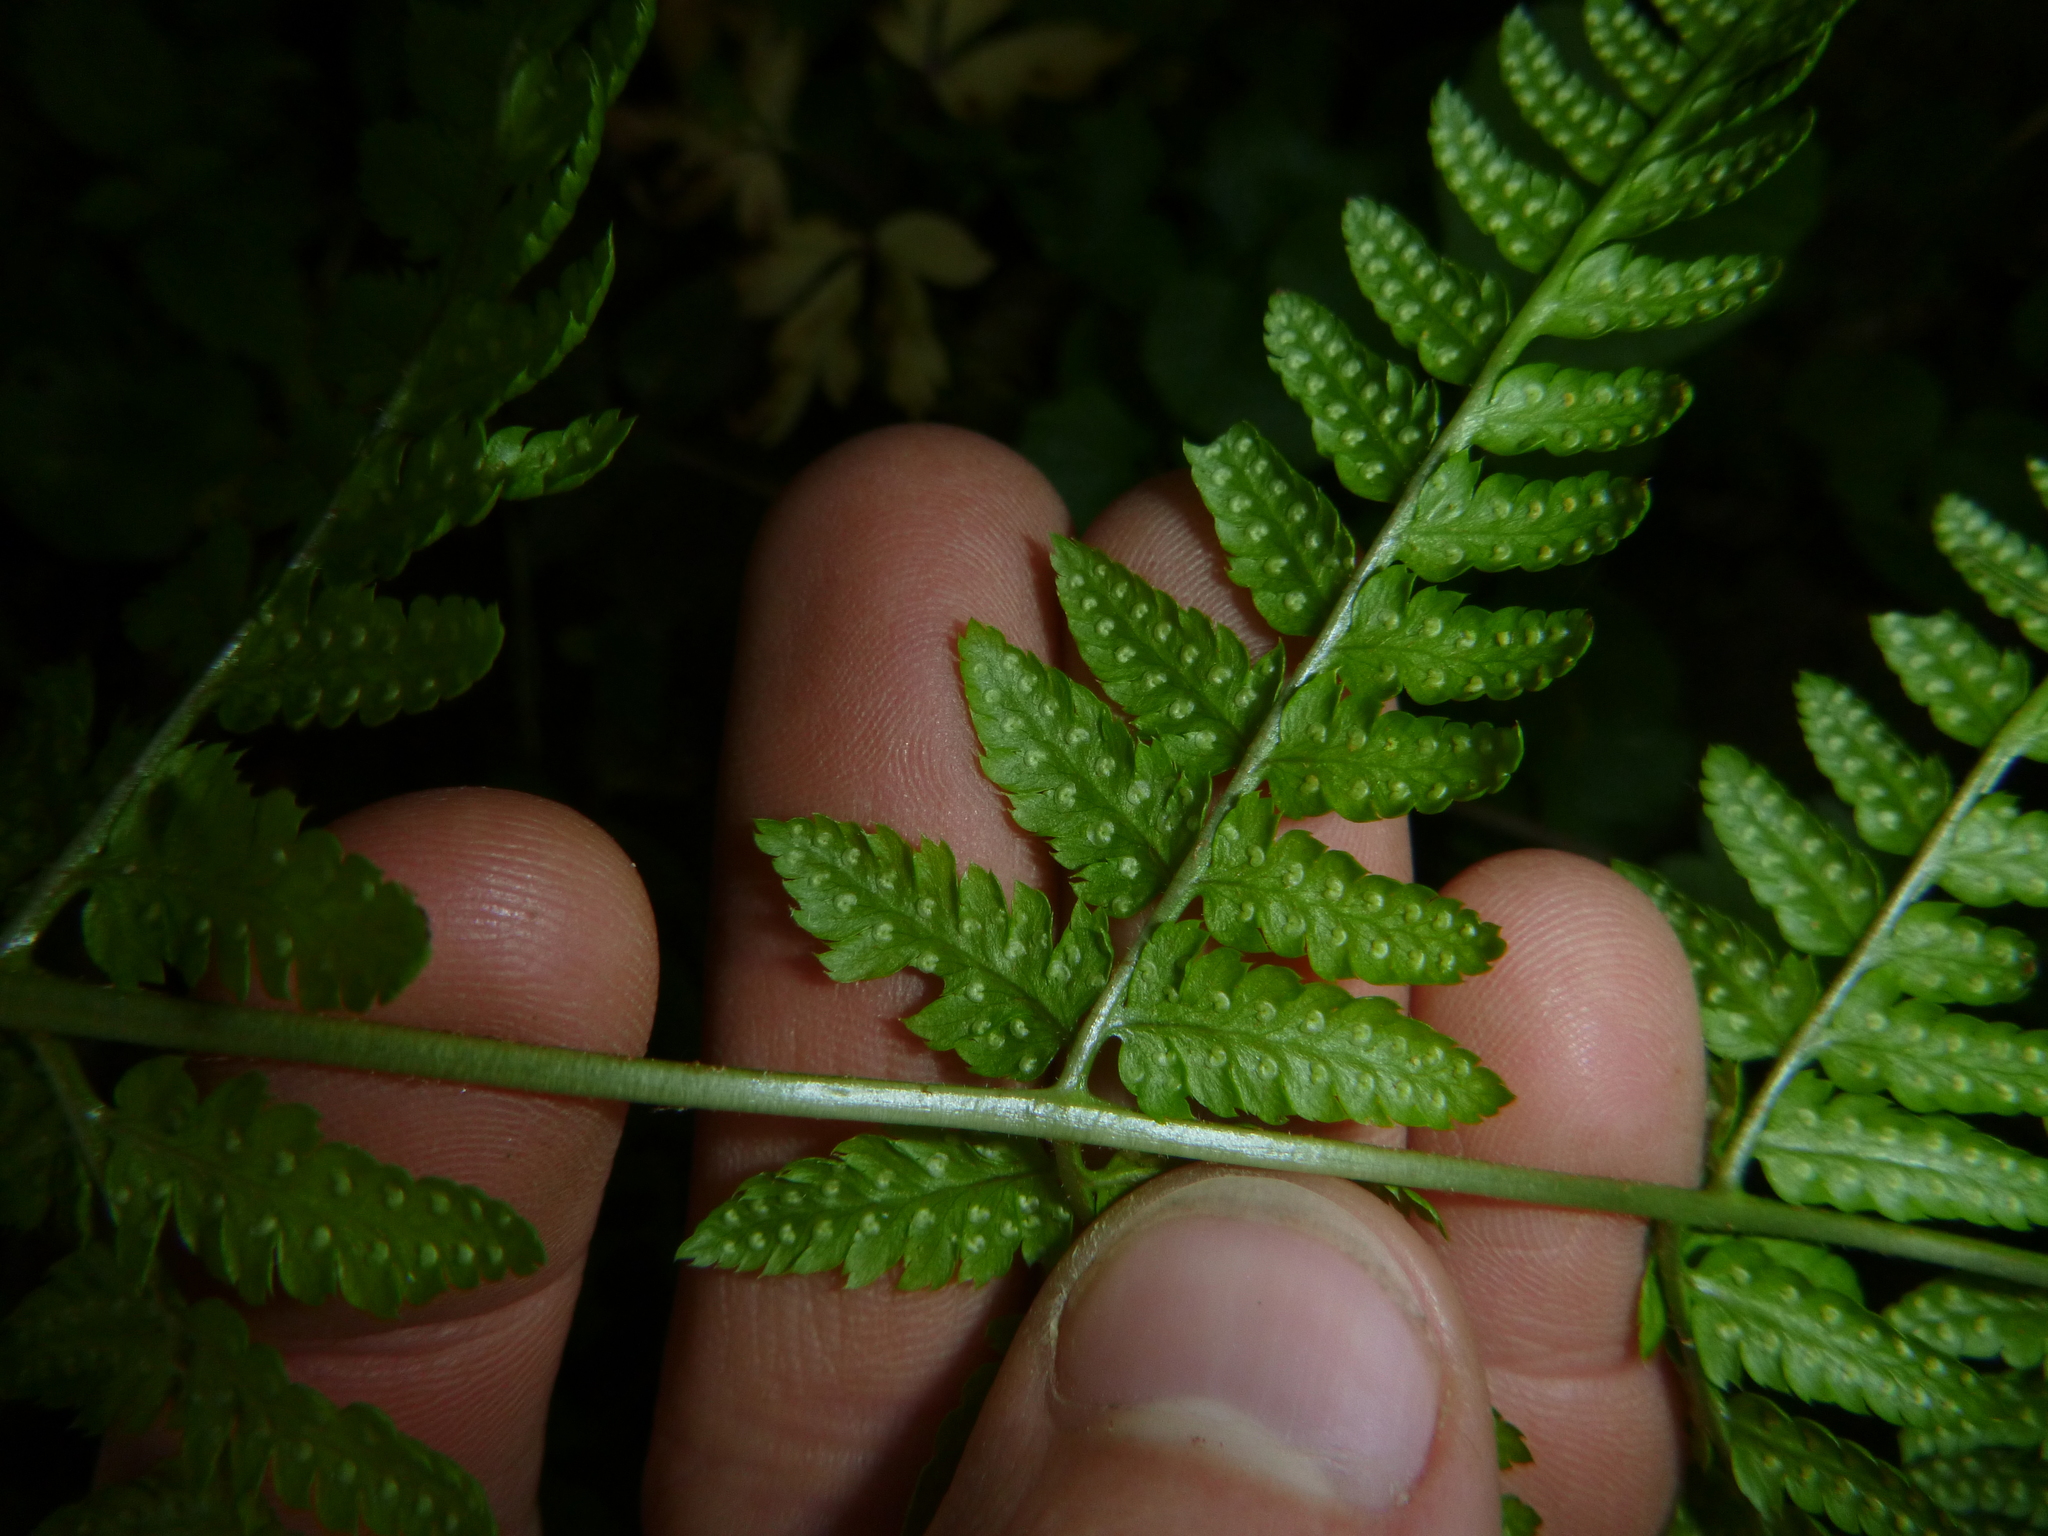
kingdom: Plantae
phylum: Tracheophyta
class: Polypodiopsida
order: Polypodiales
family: Dryopteridaceae
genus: Dryopteris
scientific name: Dryopteris carthusiana
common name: Narrow buckler-fern
